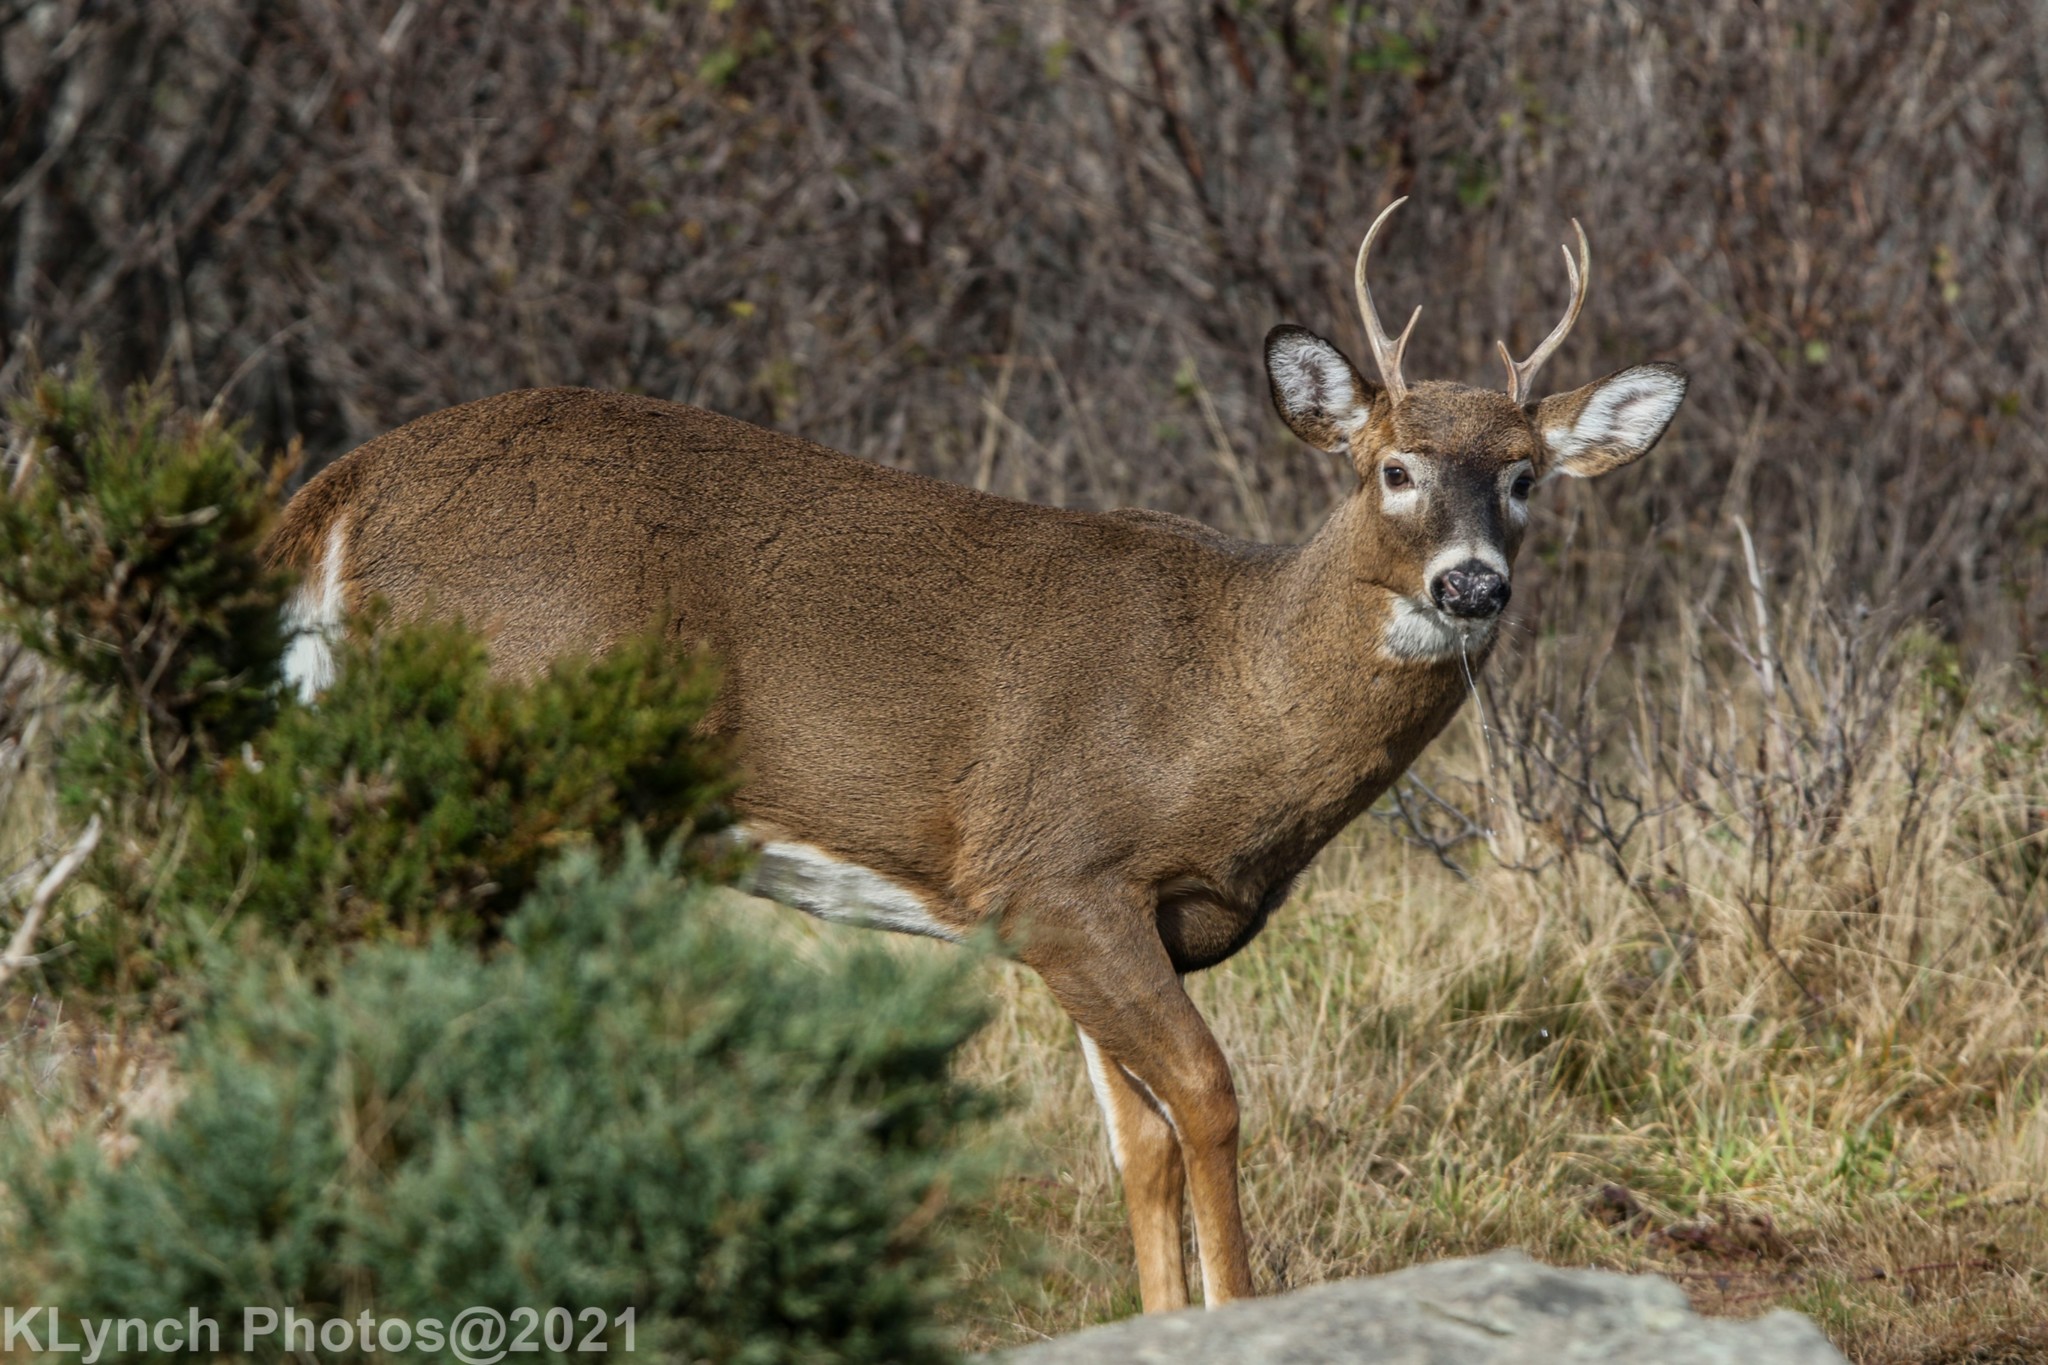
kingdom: Animalia
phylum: Chordata
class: Mammalia
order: Artiodactyla
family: Cervidae
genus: Odocoileus
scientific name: Odocoileus virginianus
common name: White-tailed deer
